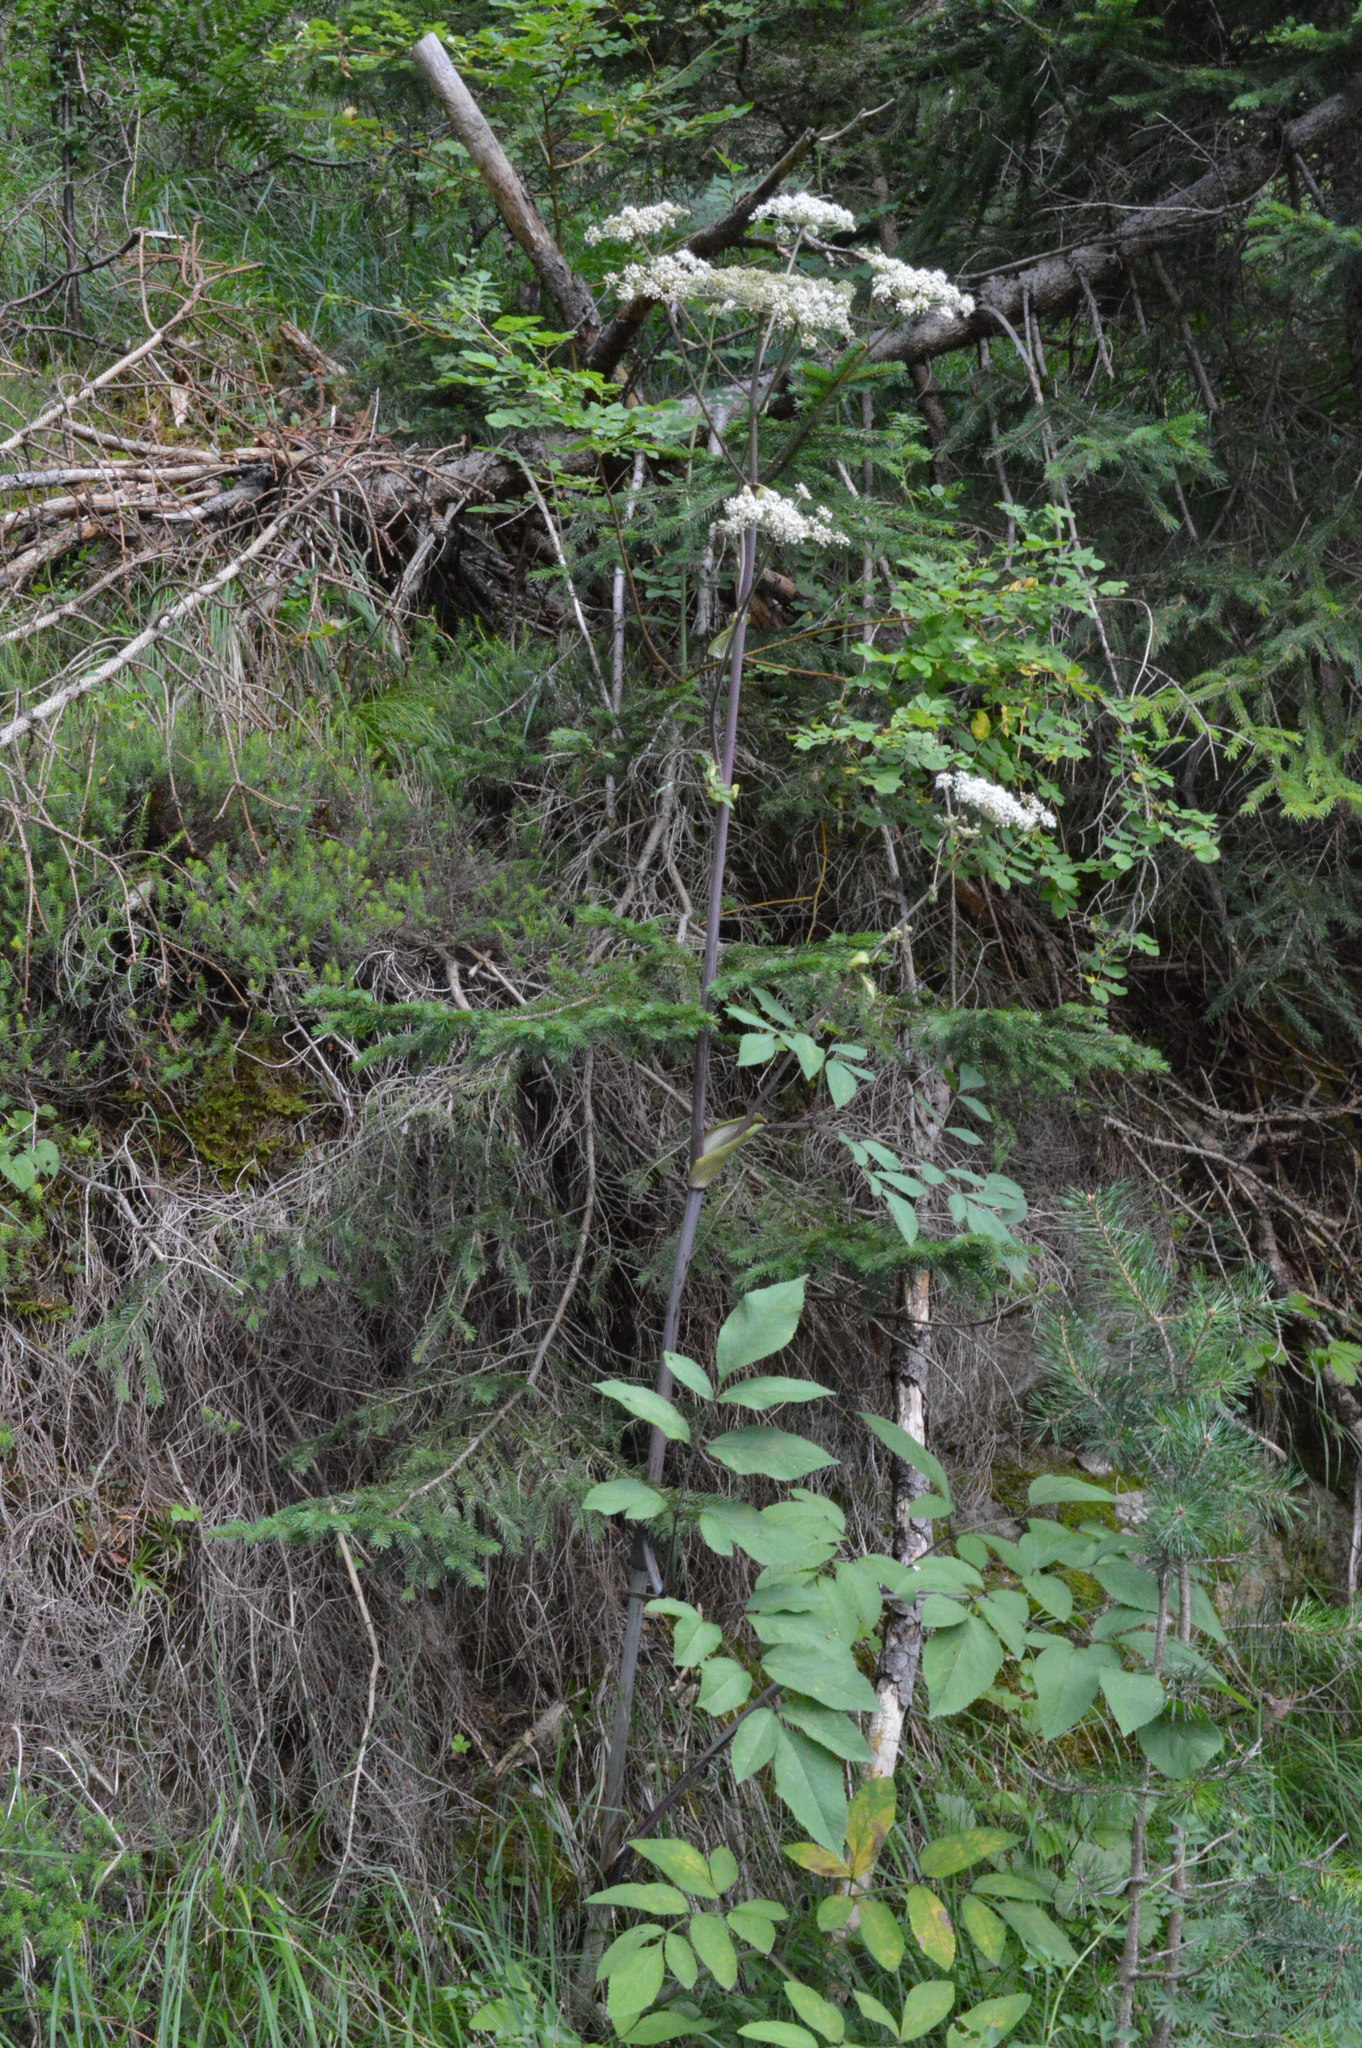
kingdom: Plantae
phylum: Tracheophyta
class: Magnoliopsida
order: Apiales
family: Apiaceae
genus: Peucedanum
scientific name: Peucedanum verticillare
